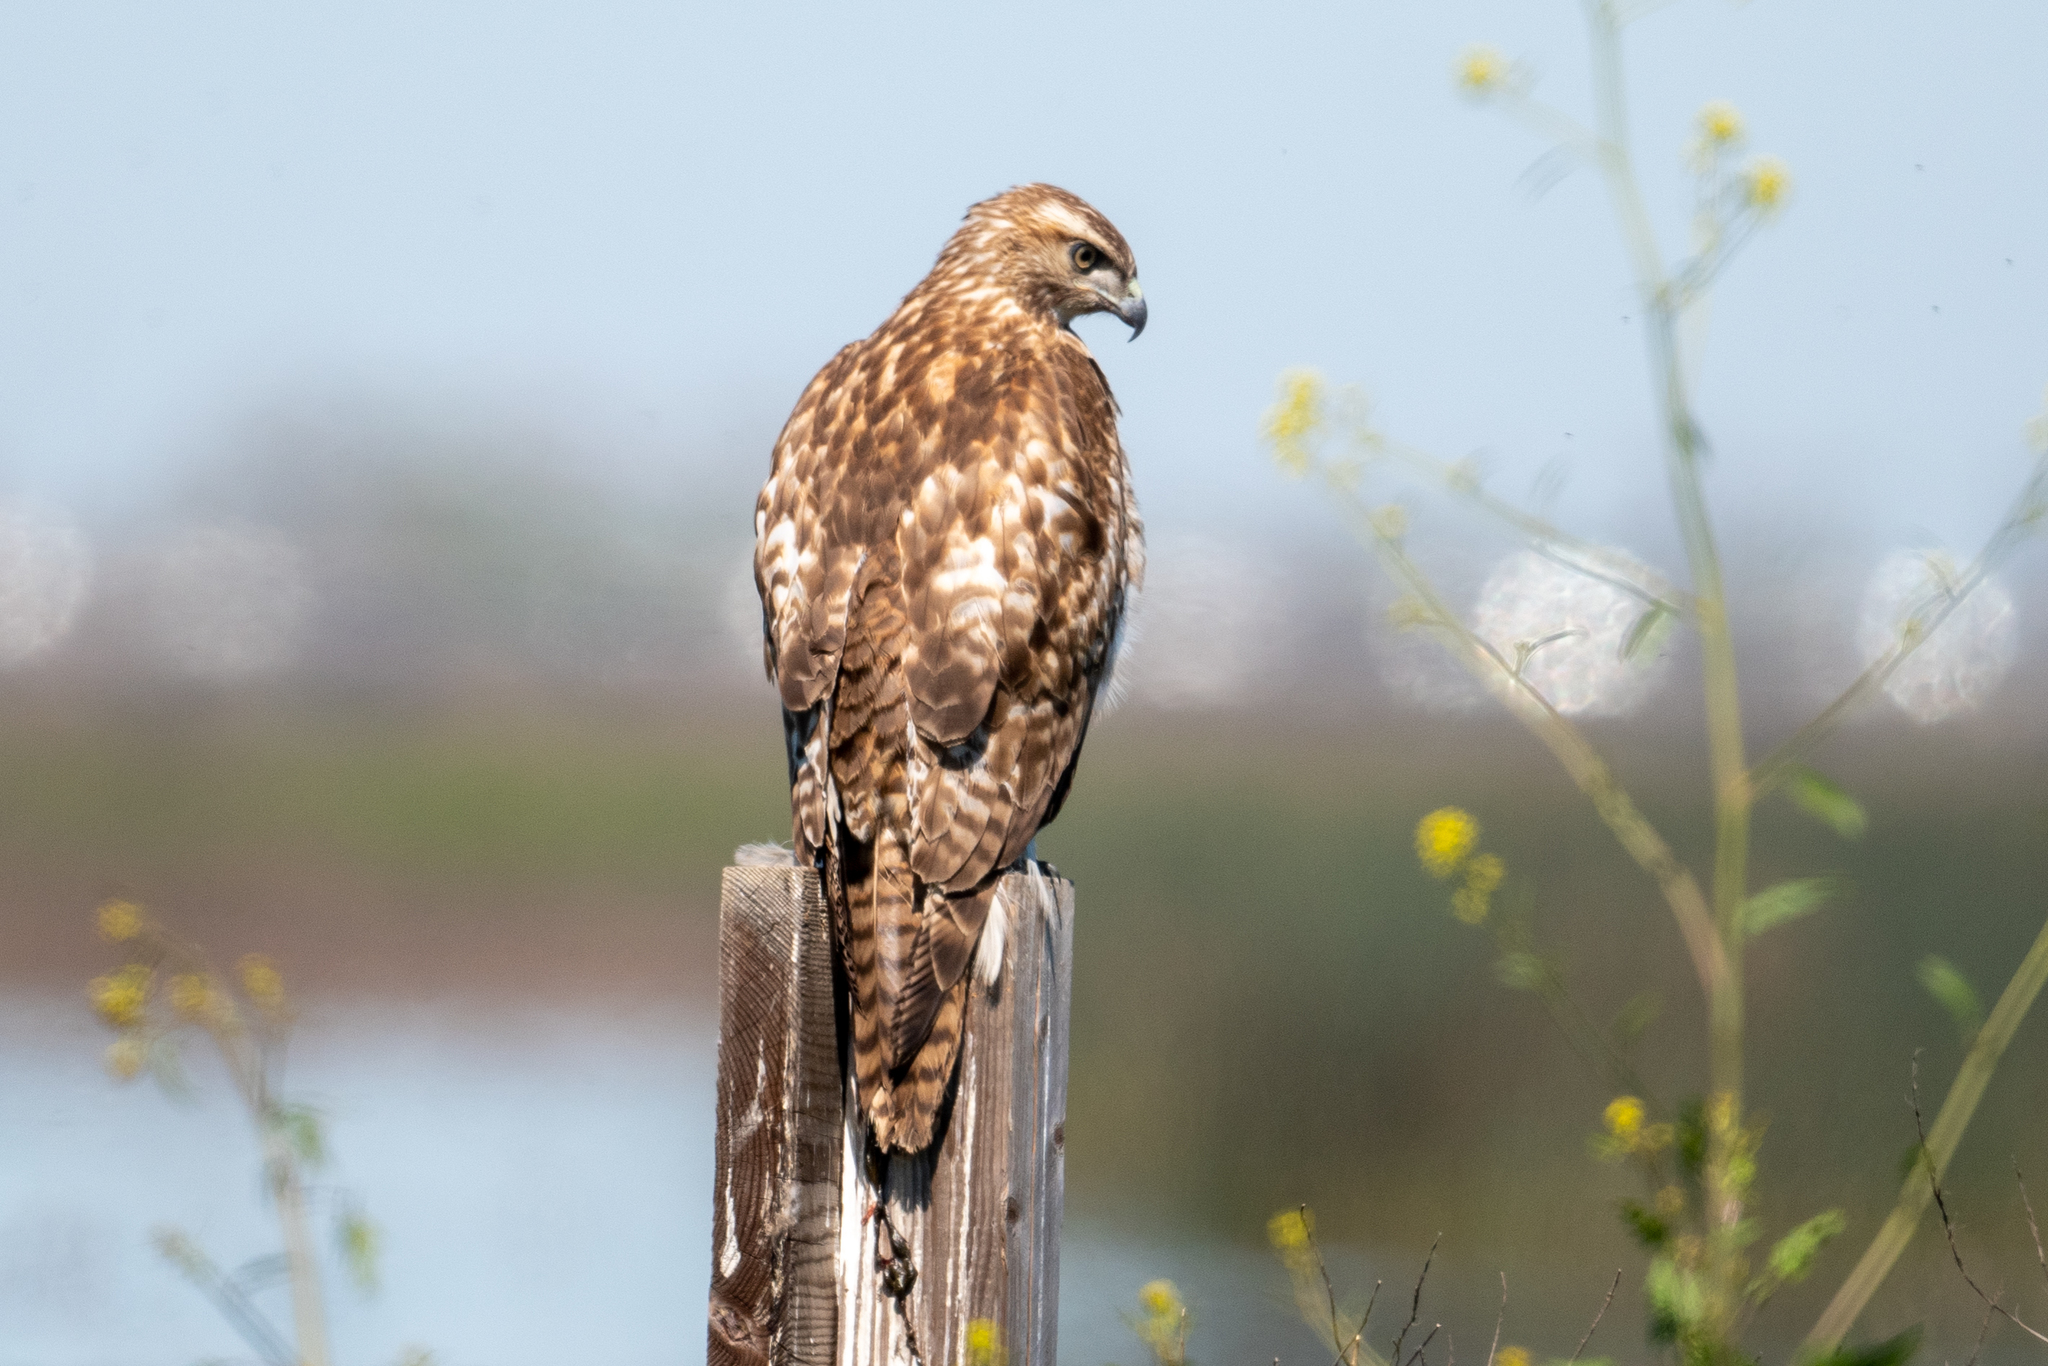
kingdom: Animalia
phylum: Chordata
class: Aves
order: Accipitriformes
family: Accipitridae
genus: Buteo
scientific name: Buteo jamaicensis
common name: Red-tailed hawk
